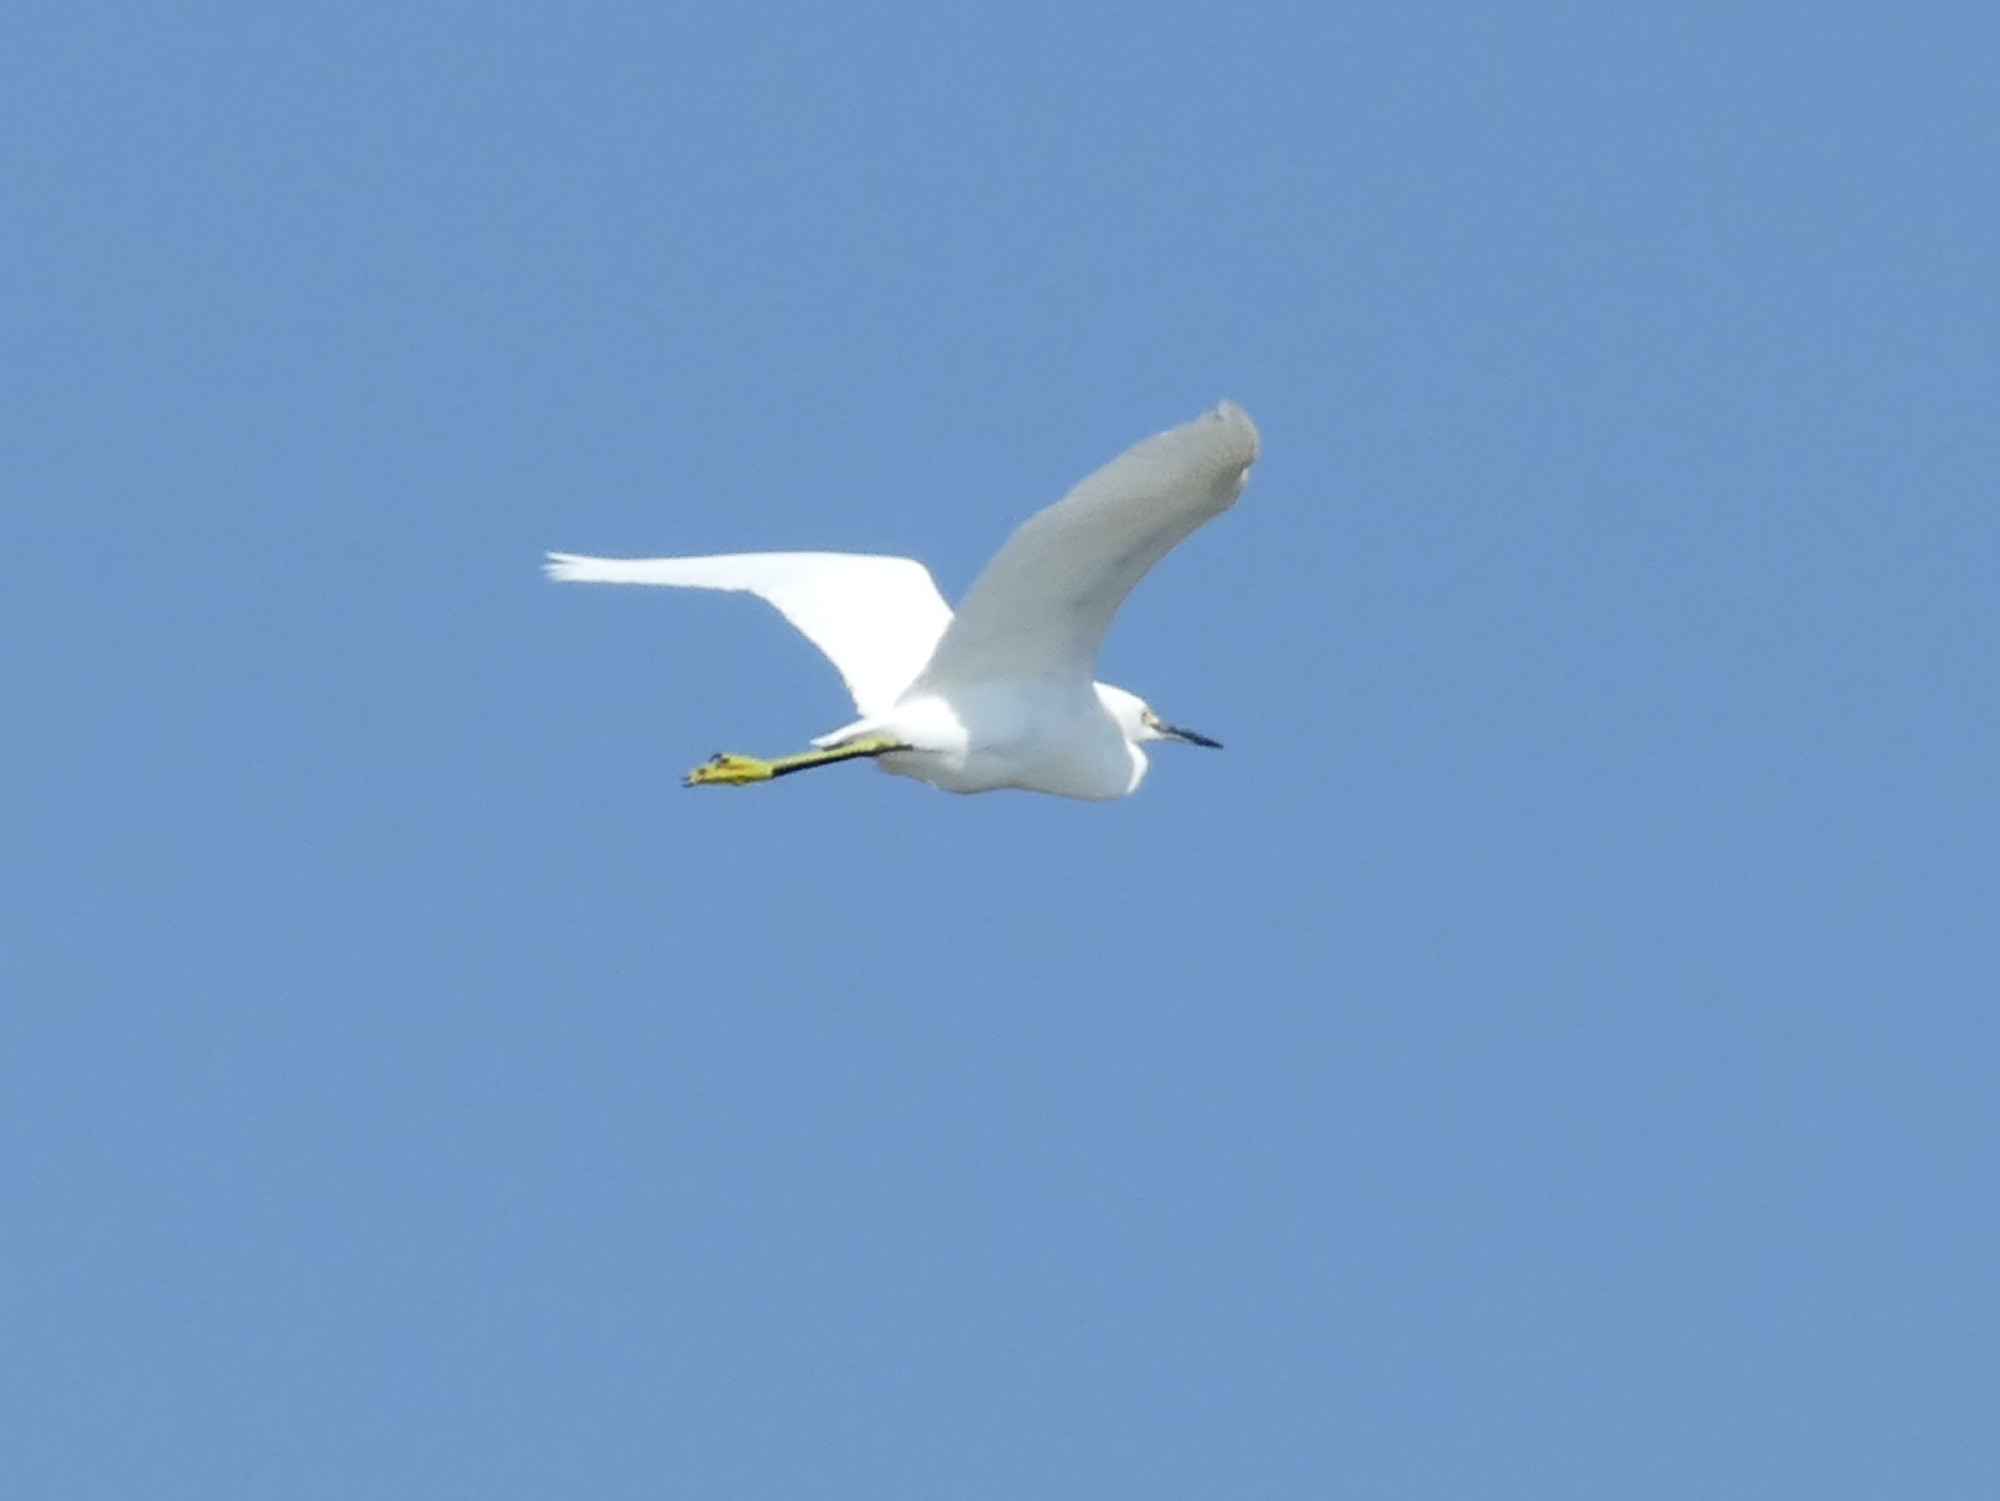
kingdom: Animalia
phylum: Chordata
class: Aves
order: Pelecaniformes
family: Ardeidae
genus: Egretta
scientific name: Egretta thula
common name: Snowy egret
